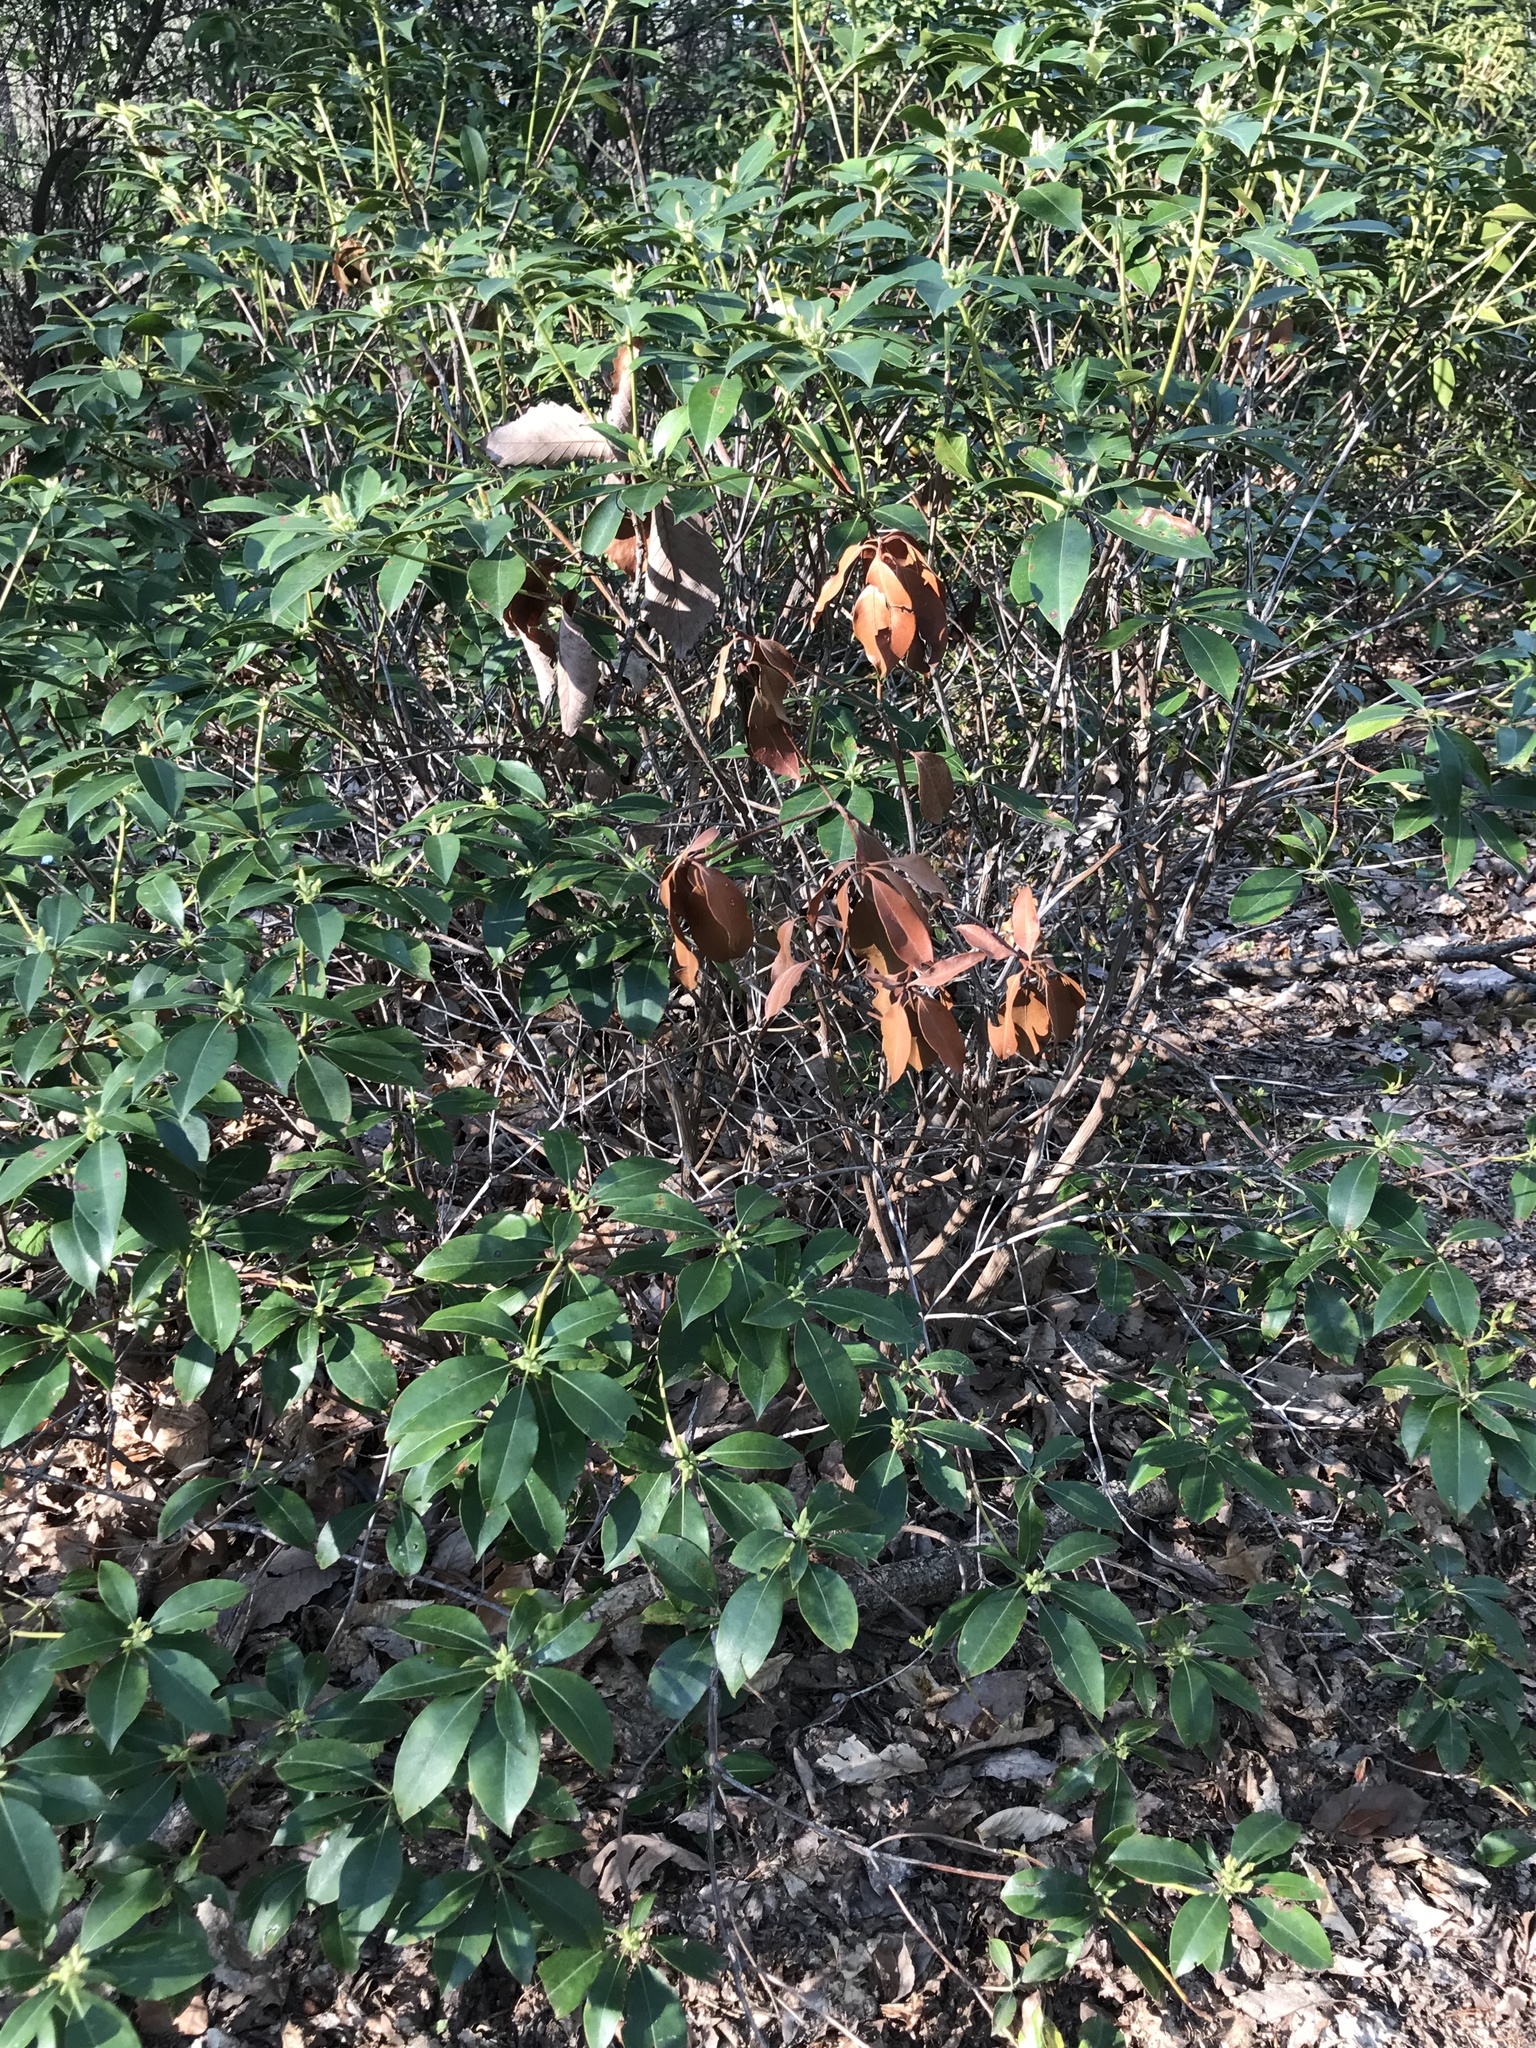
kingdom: Plantae
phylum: Tracheophyta
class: Magnoliopsida
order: Ericales
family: Ericaceae
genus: Kalmia
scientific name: Kalmia latifolia
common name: Mountain-laurel
